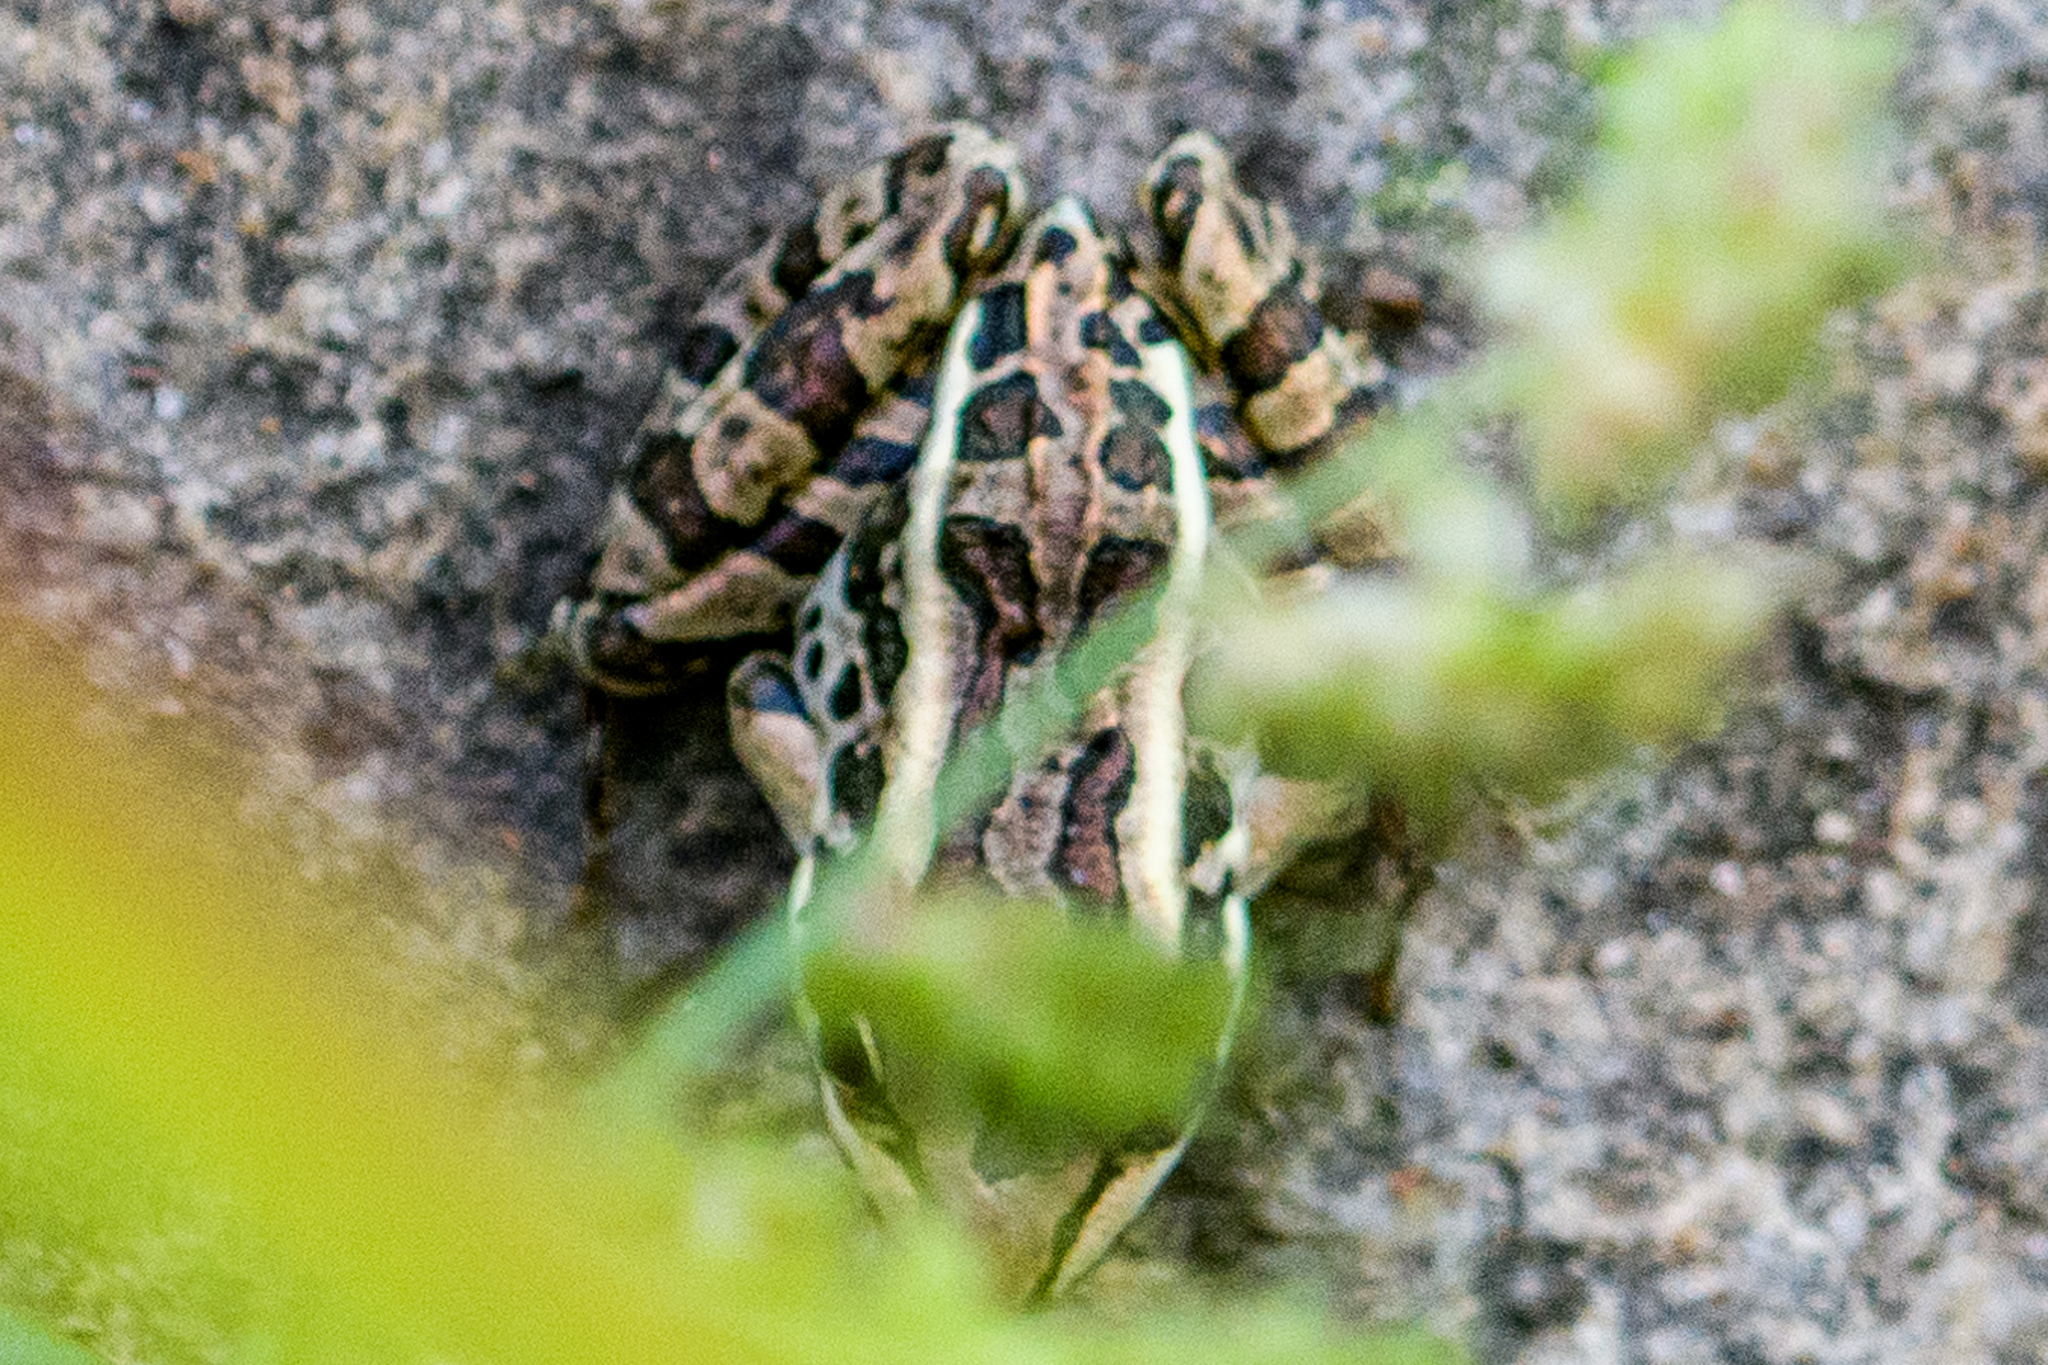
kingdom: Animalia
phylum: Chordata
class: Amphibia
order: Anura
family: Ranidae
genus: Lithobates
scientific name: Lithobates palustris
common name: Pickerel frog
